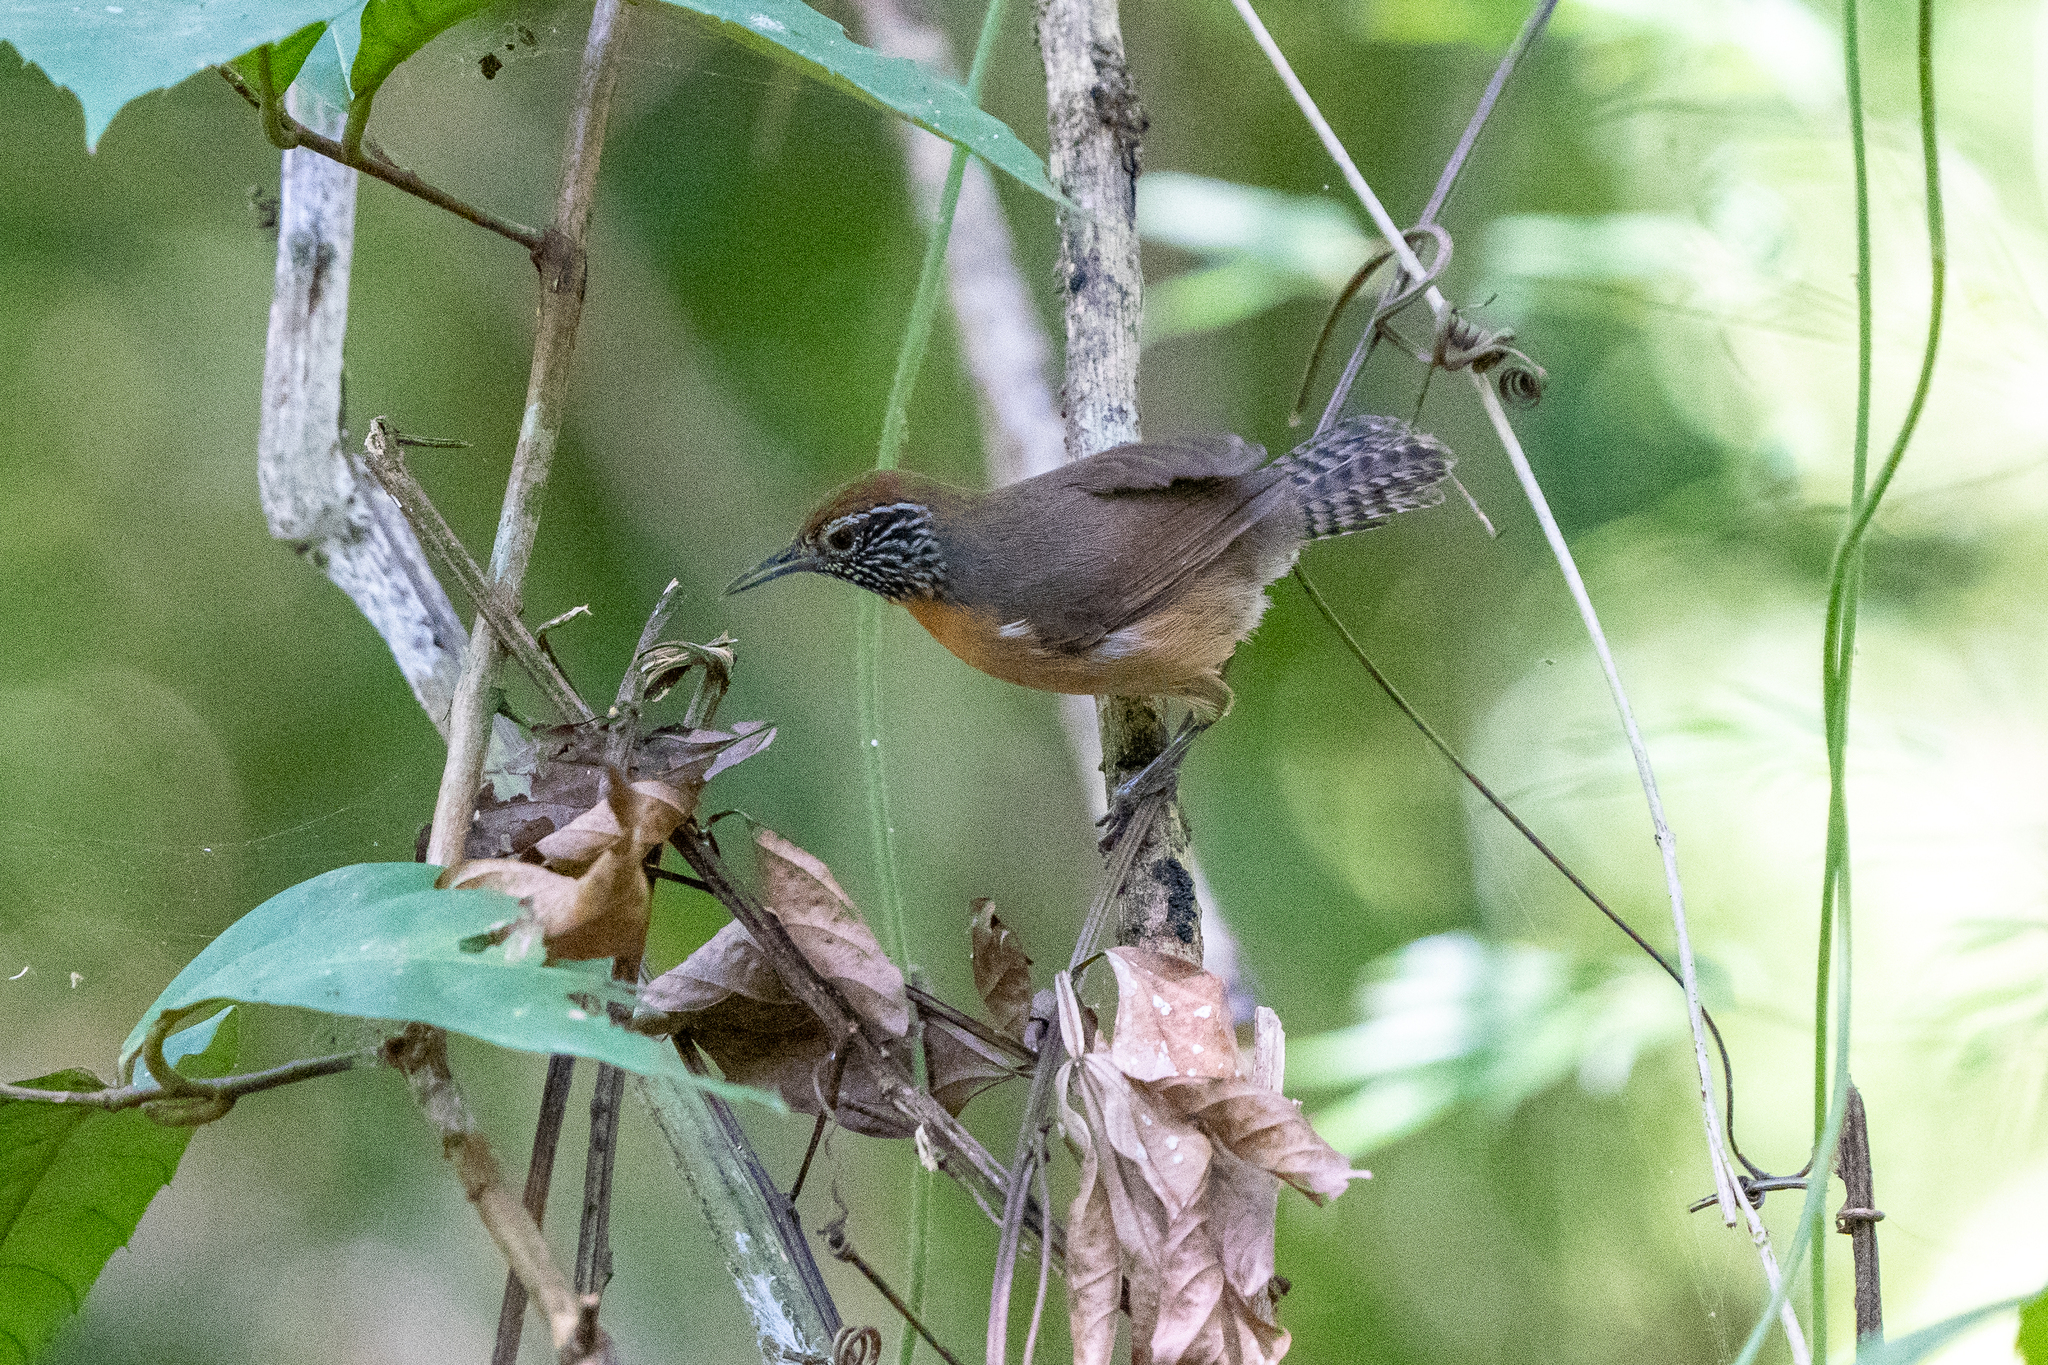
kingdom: Animalia
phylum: Chordata
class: Aves
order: Passeriformes
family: Troglodytidae
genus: Pheugopedius
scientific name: Pheugopedius rutilus
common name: Rufous-breasted wren
